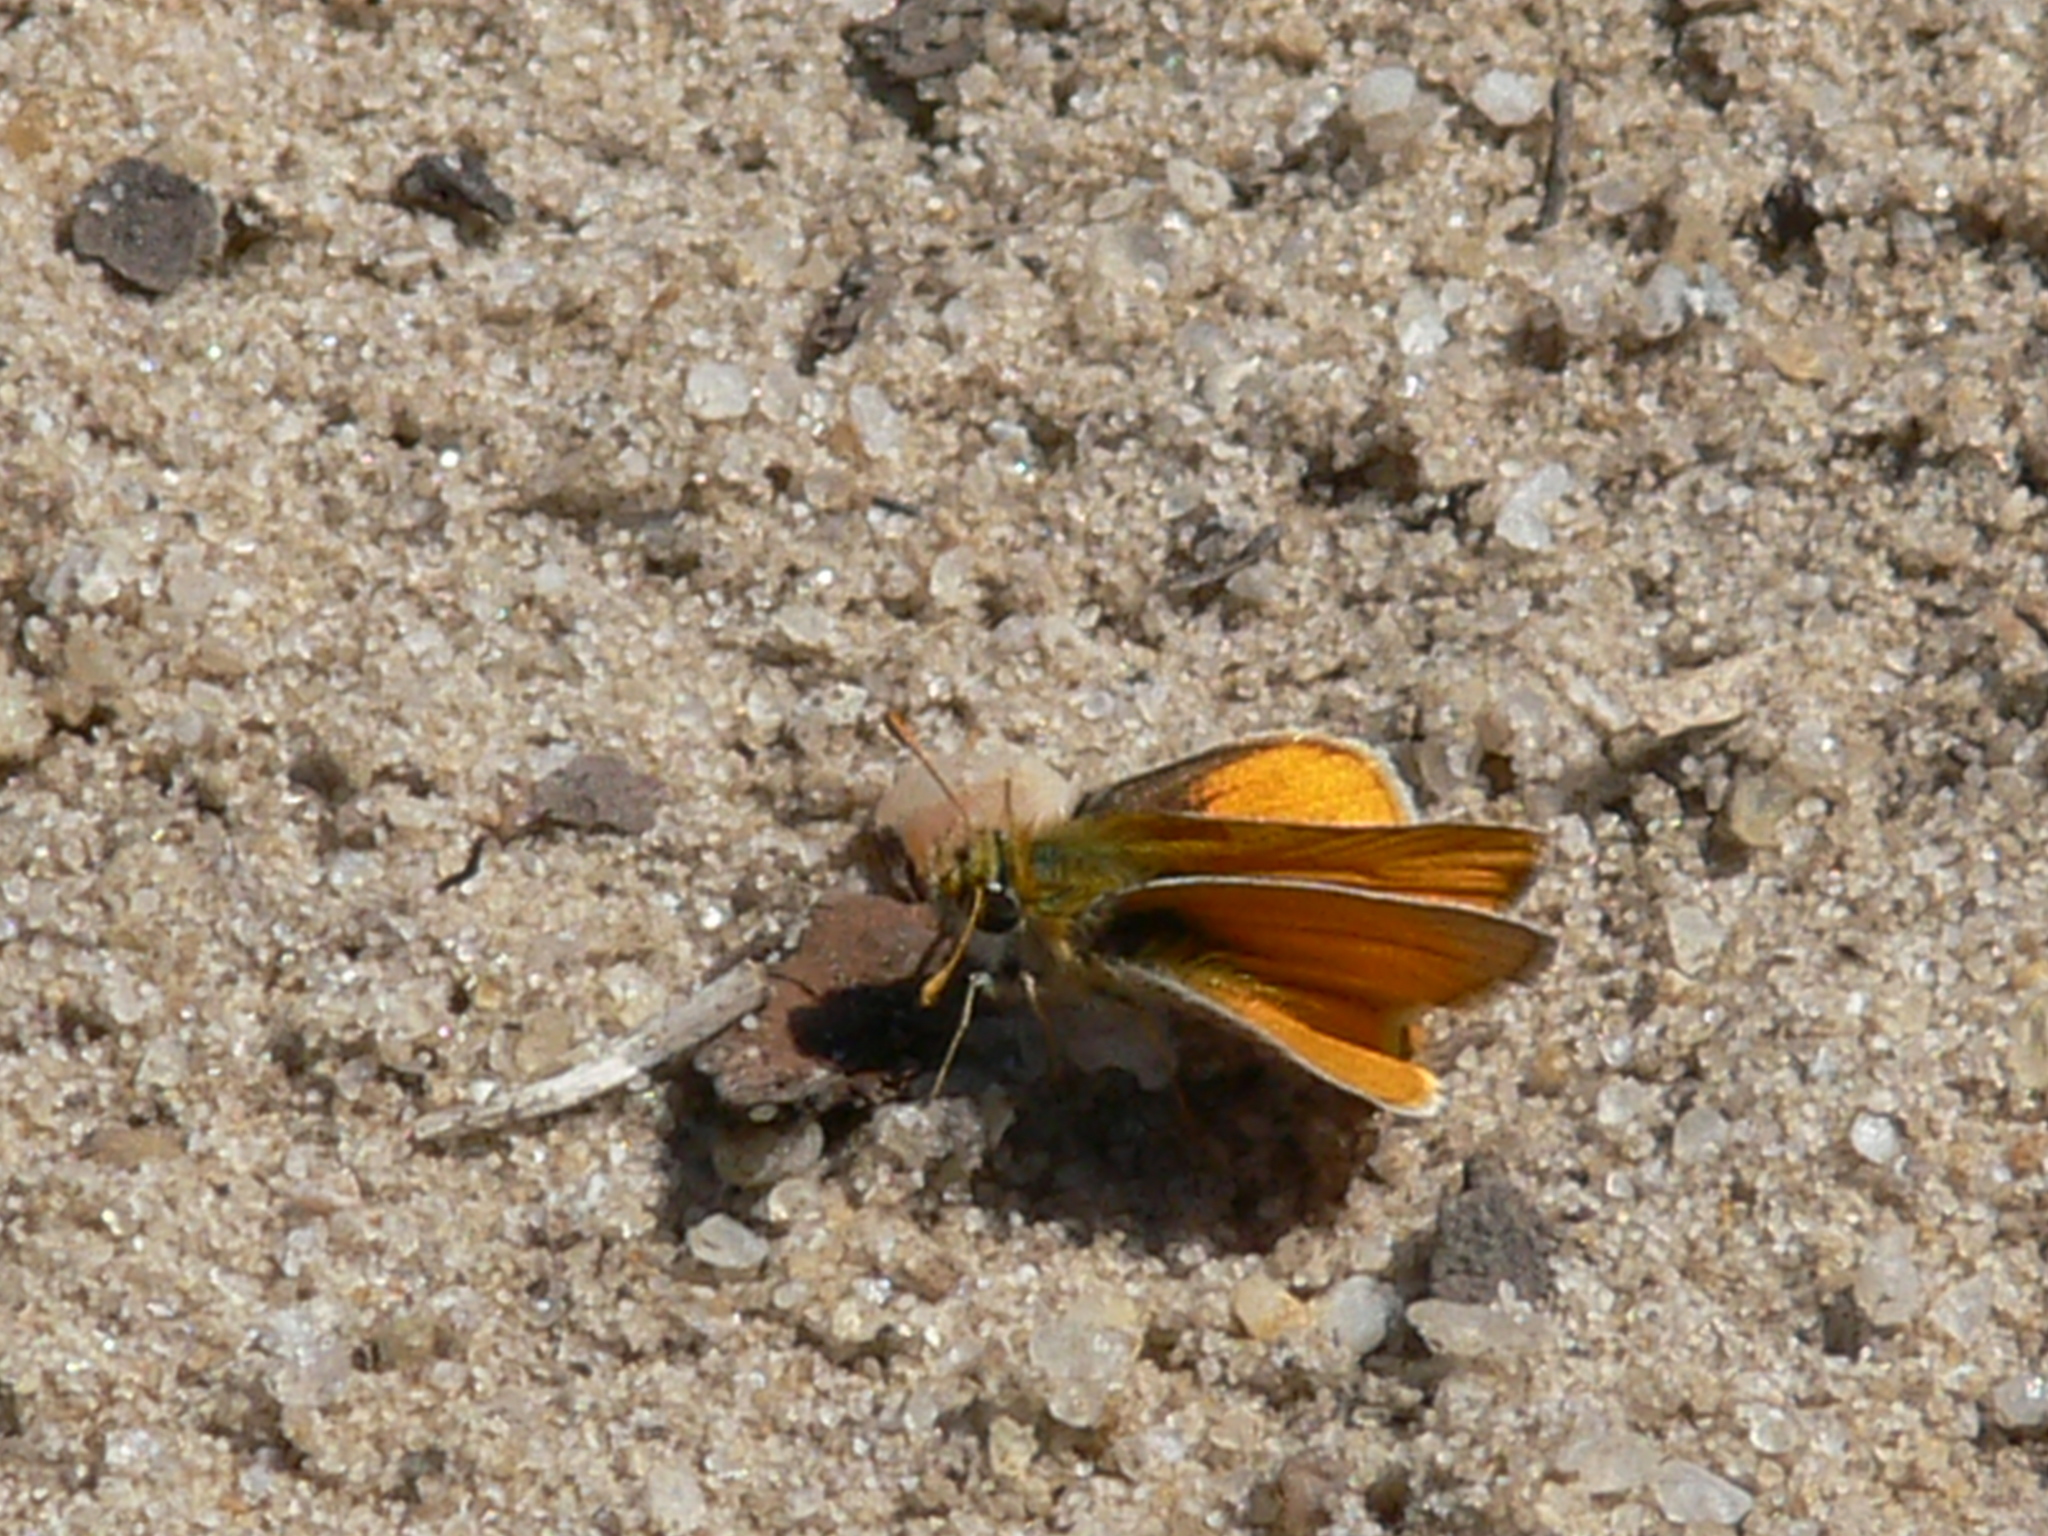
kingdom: Animalia
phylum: Arthropoda
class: Insecta
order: Lepidoptera
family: Hesperiidae
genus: Copaeodes
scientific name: Copaeodes minima
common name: Southern skipperling
